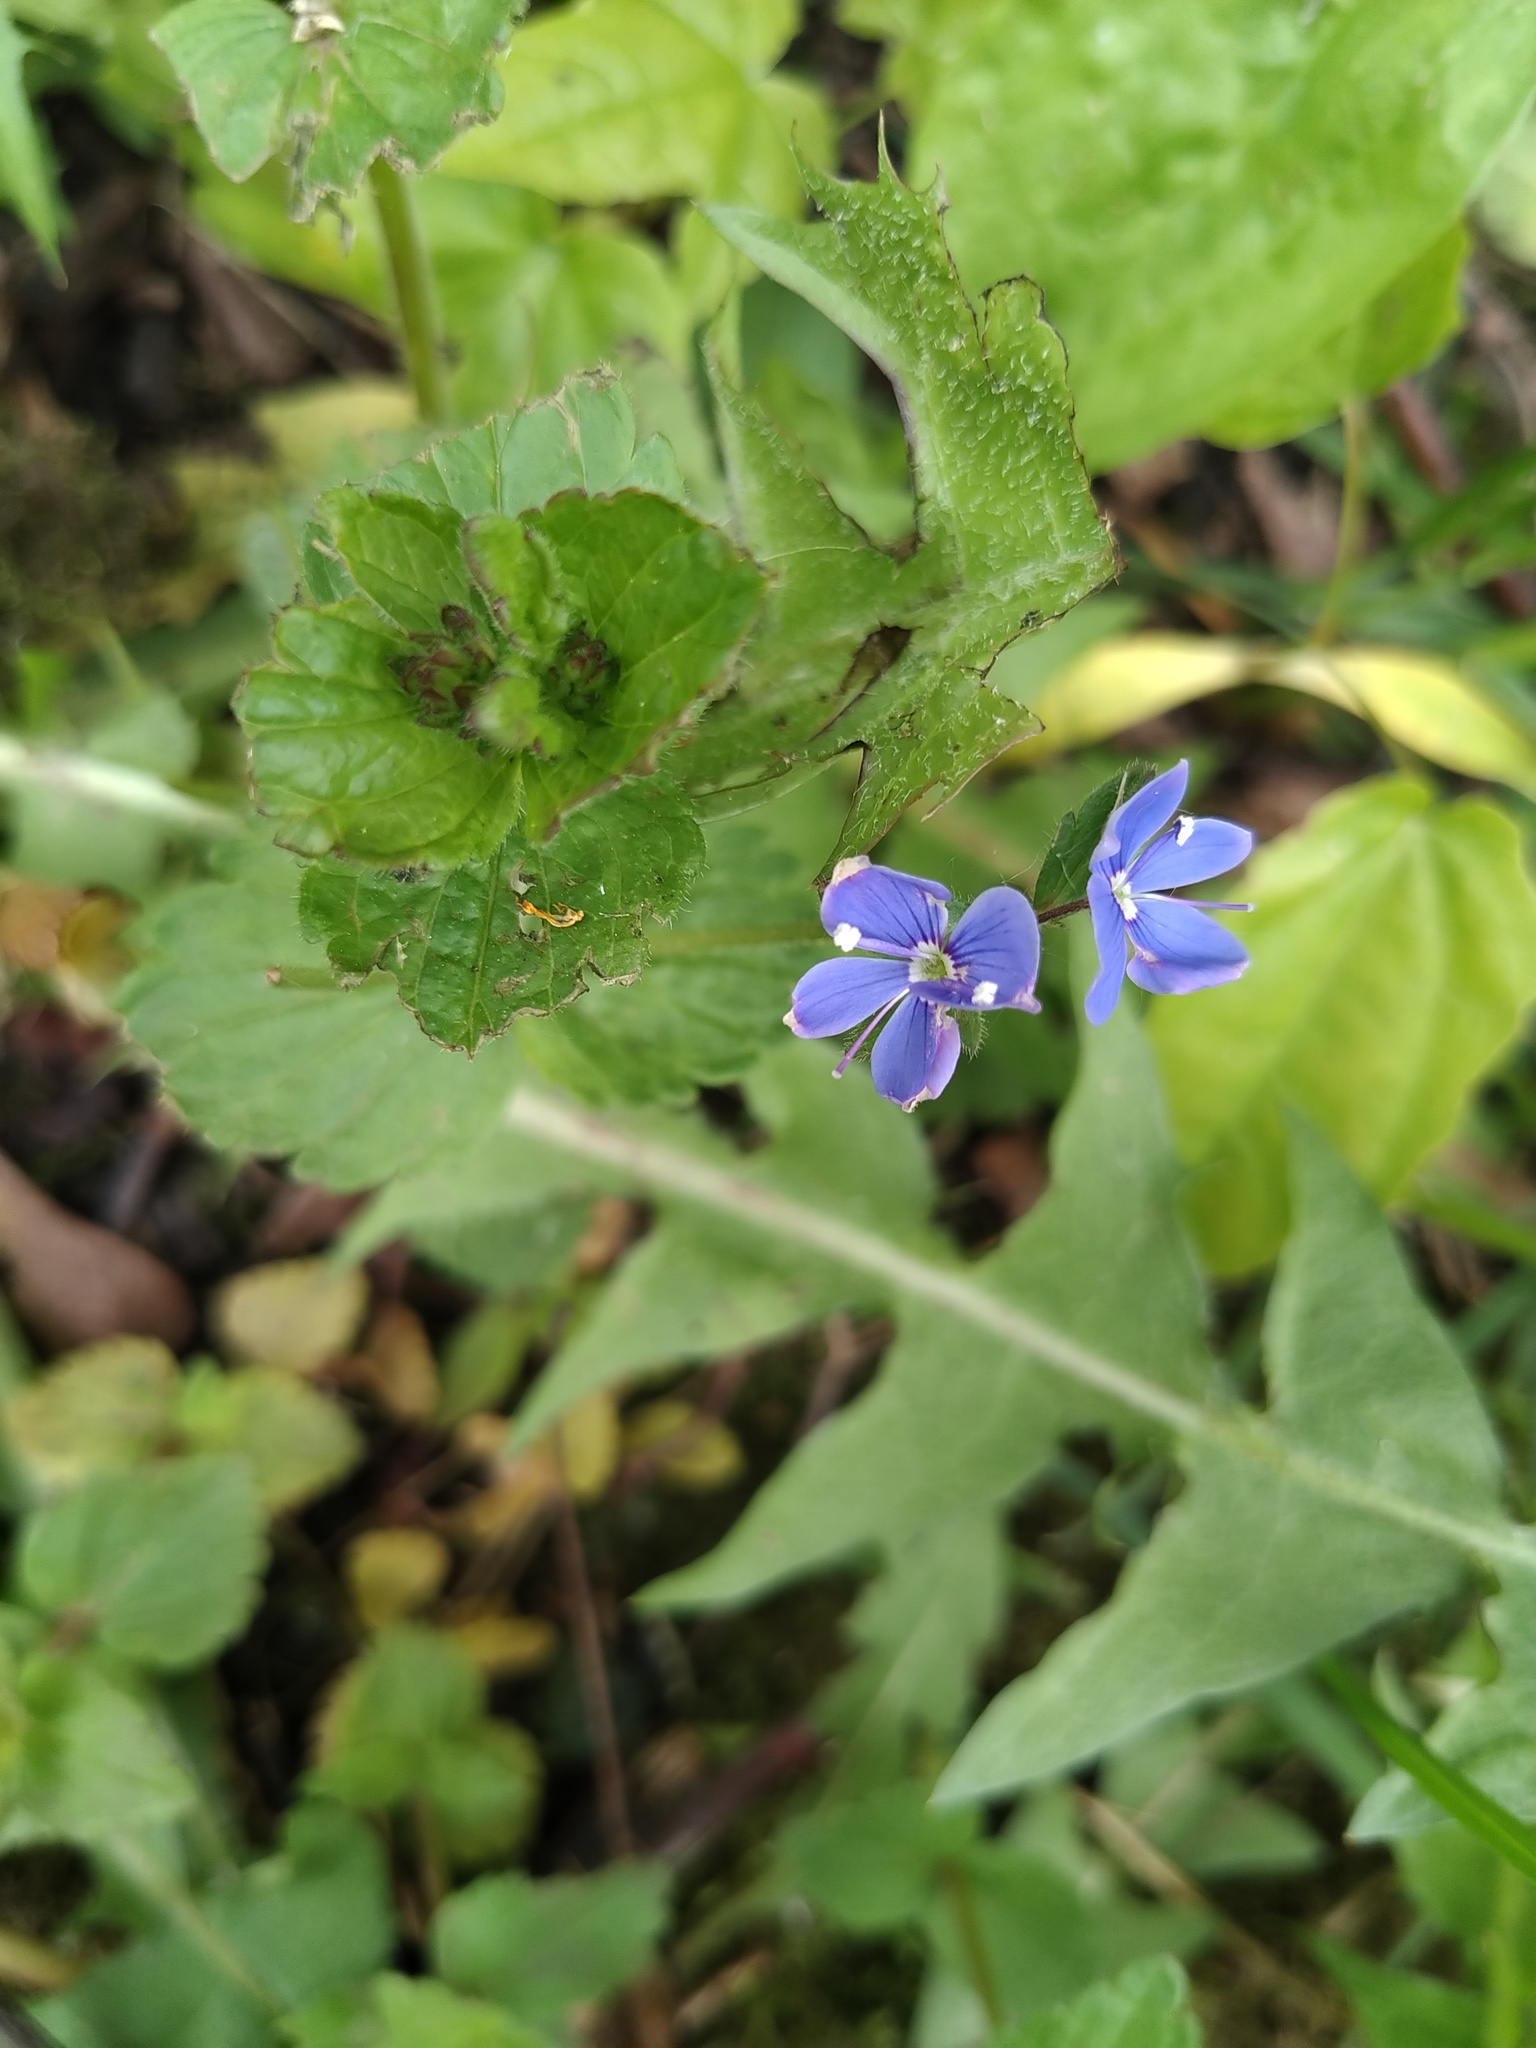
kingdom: Plantae
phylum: Tracheophyta
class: Magnoliopsida
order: Lamiales
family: Plantaginaceae
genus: Veronica
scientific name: Veronica chamaedrys
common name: Germander speedwell
